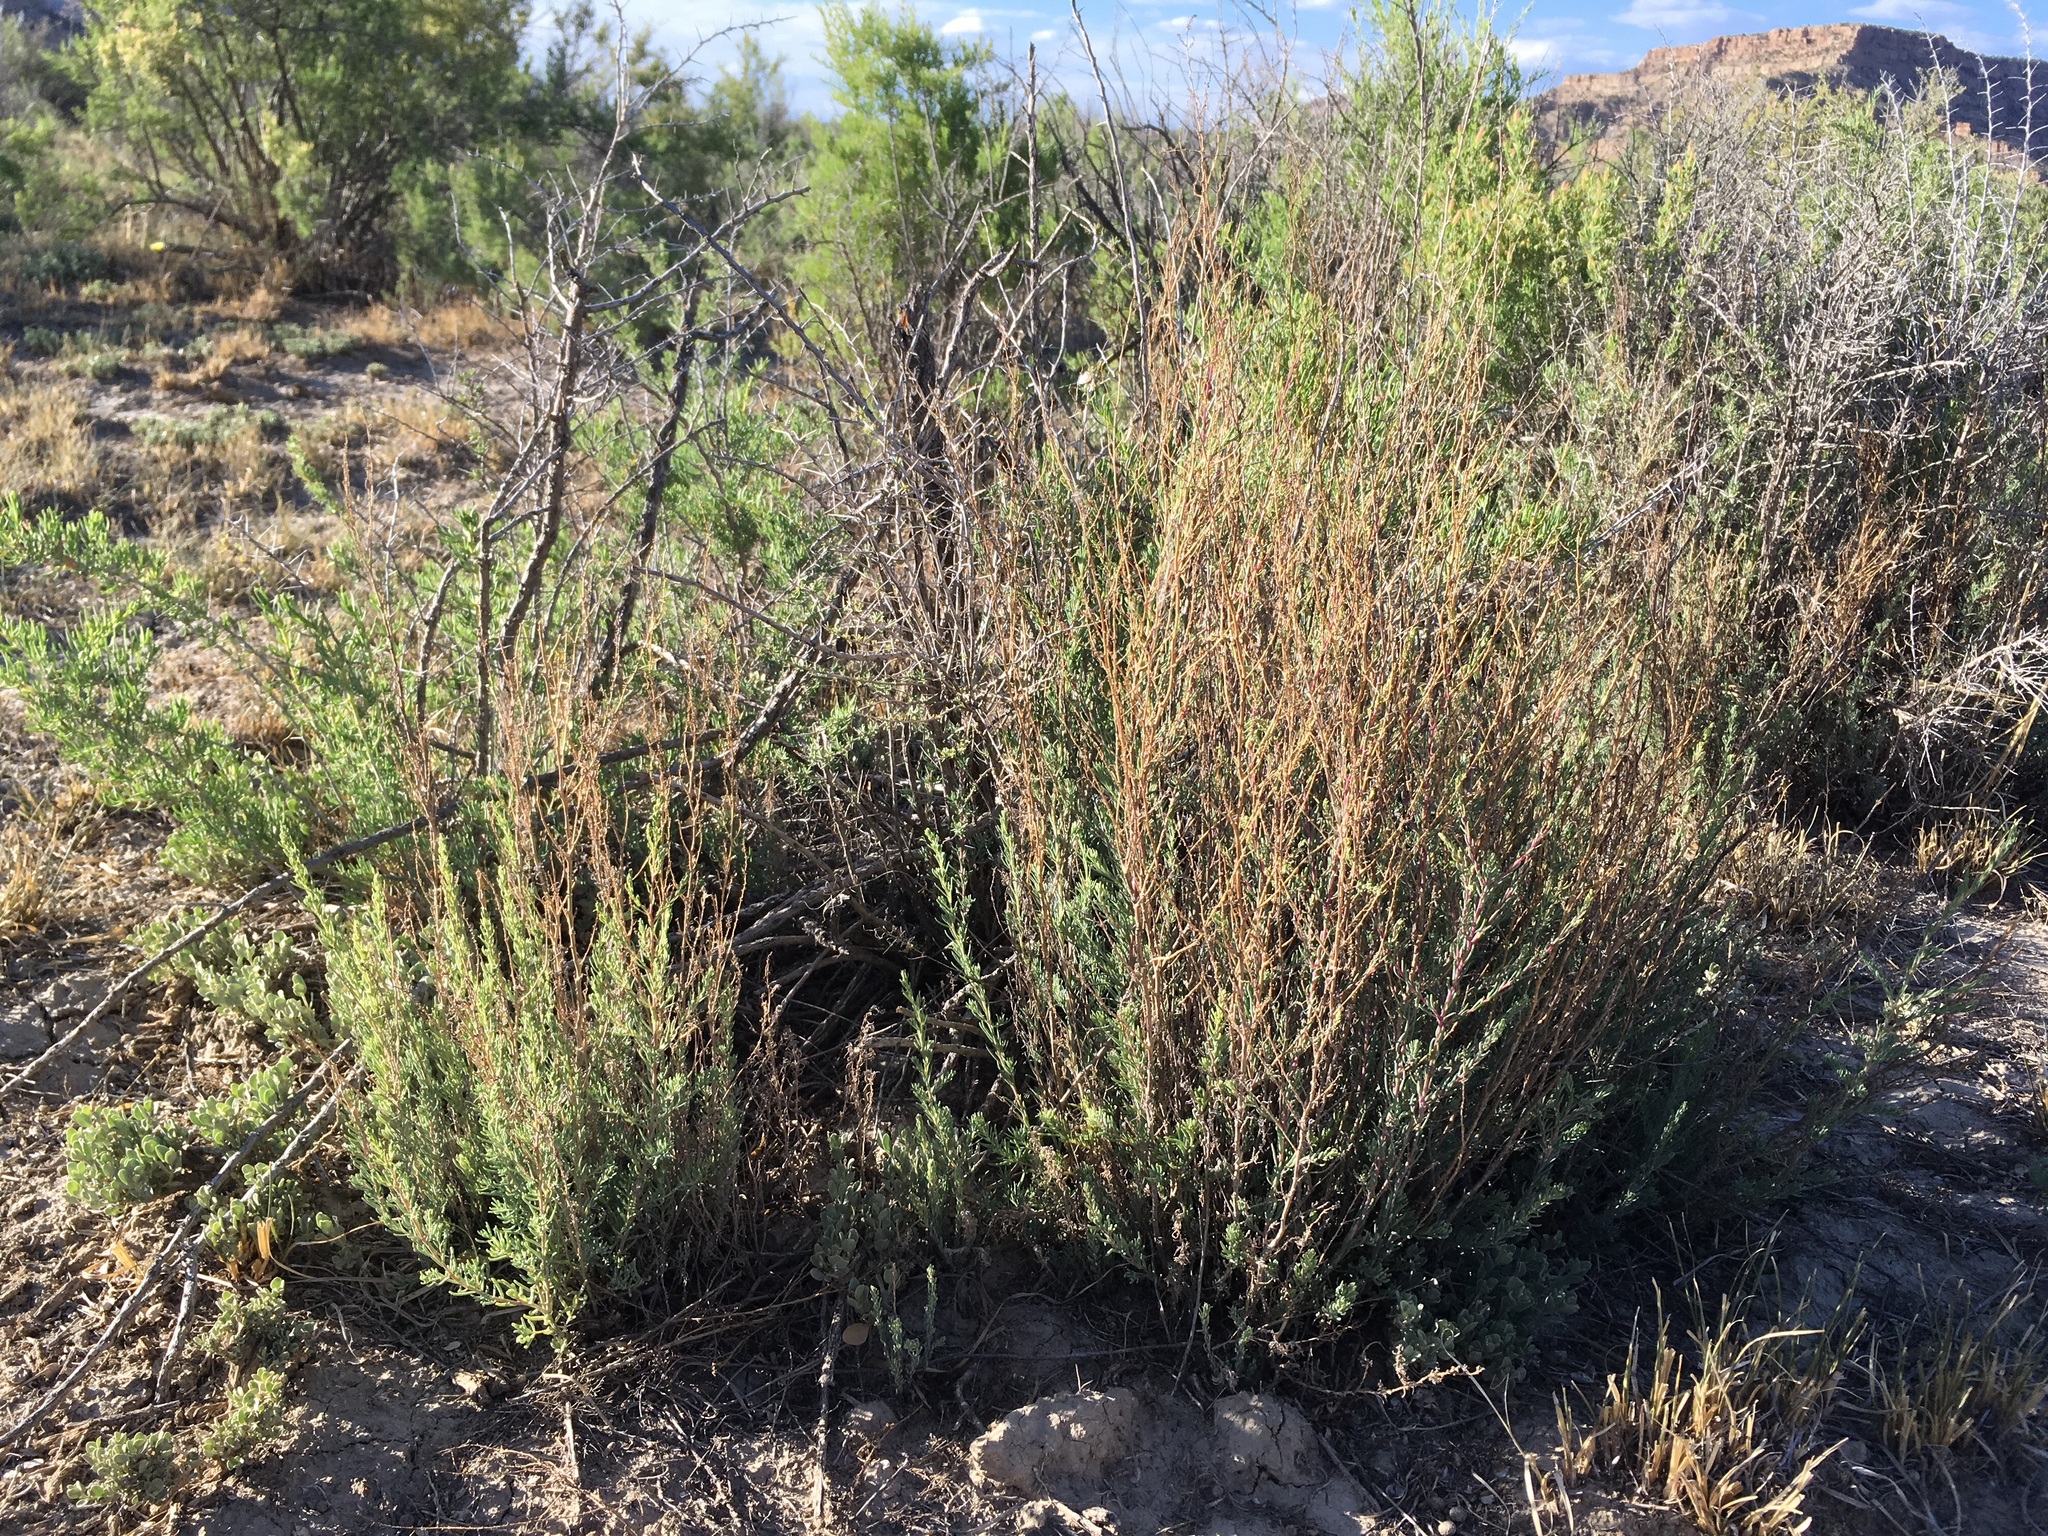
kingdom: Plantae
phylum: Tracheophyta
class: Magnoliopsida
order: Caryophyllales
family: Amaranthaceae
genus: Suaeda
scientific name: Suaeda nigra
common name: Bush seepweed
